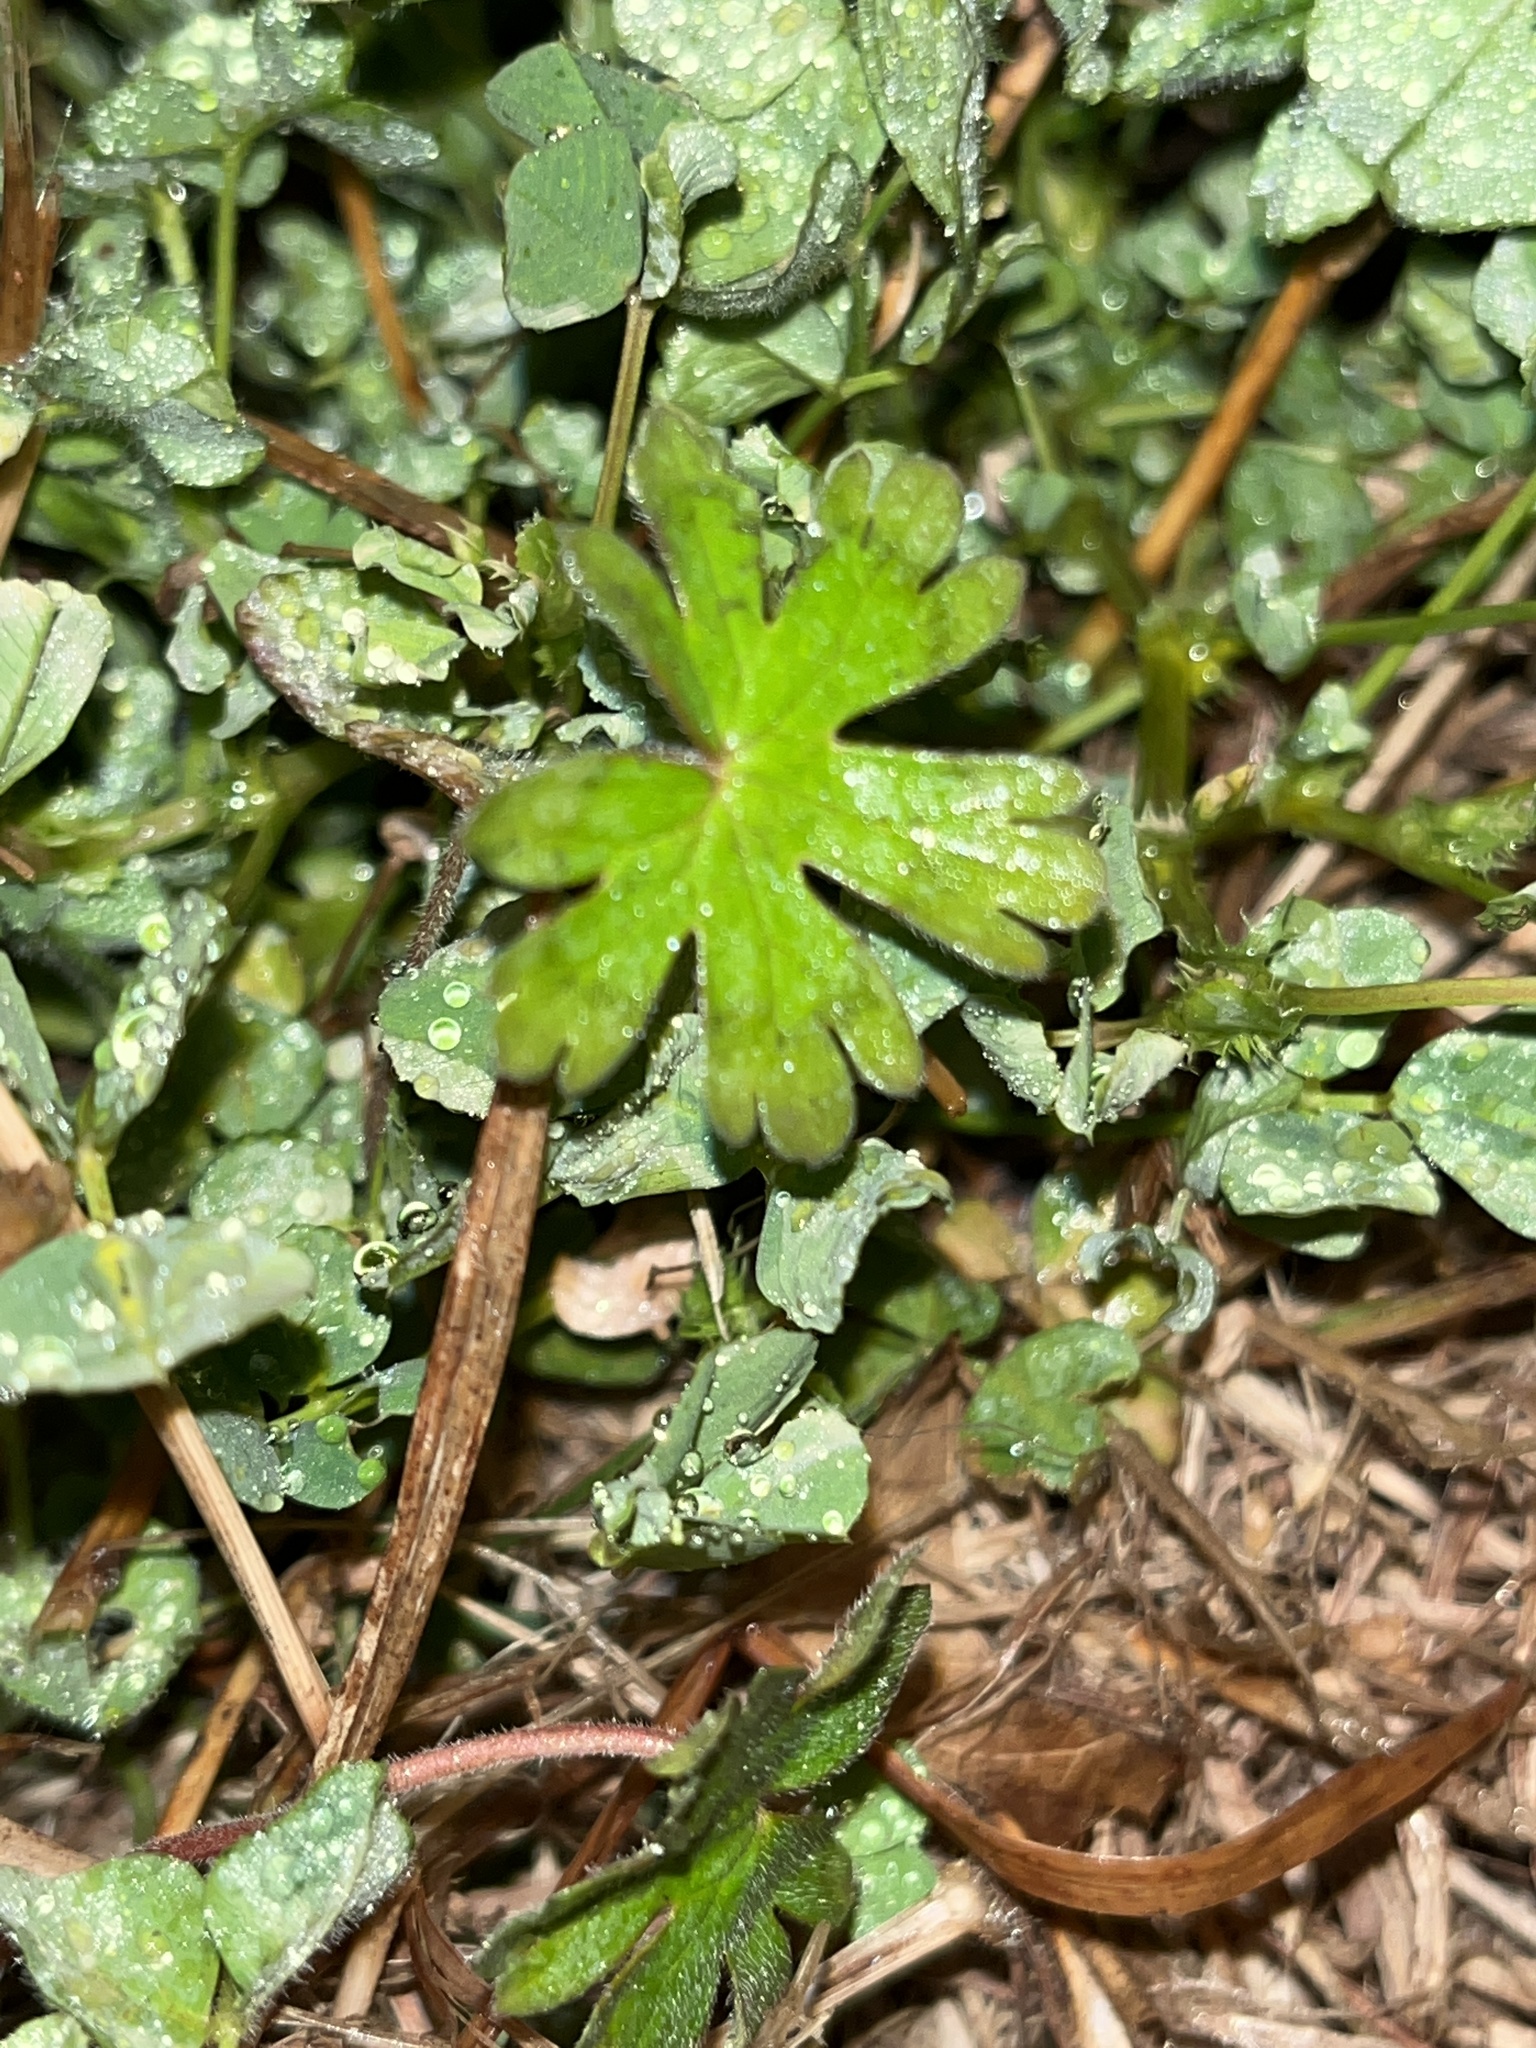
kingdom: Plantae
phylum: Tracheophyta
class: Magnoliopsida
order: Geraniales
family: Geraniaceae
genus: Geranium
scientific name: Geranium carolinianum
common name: Carolina crane's-bill
